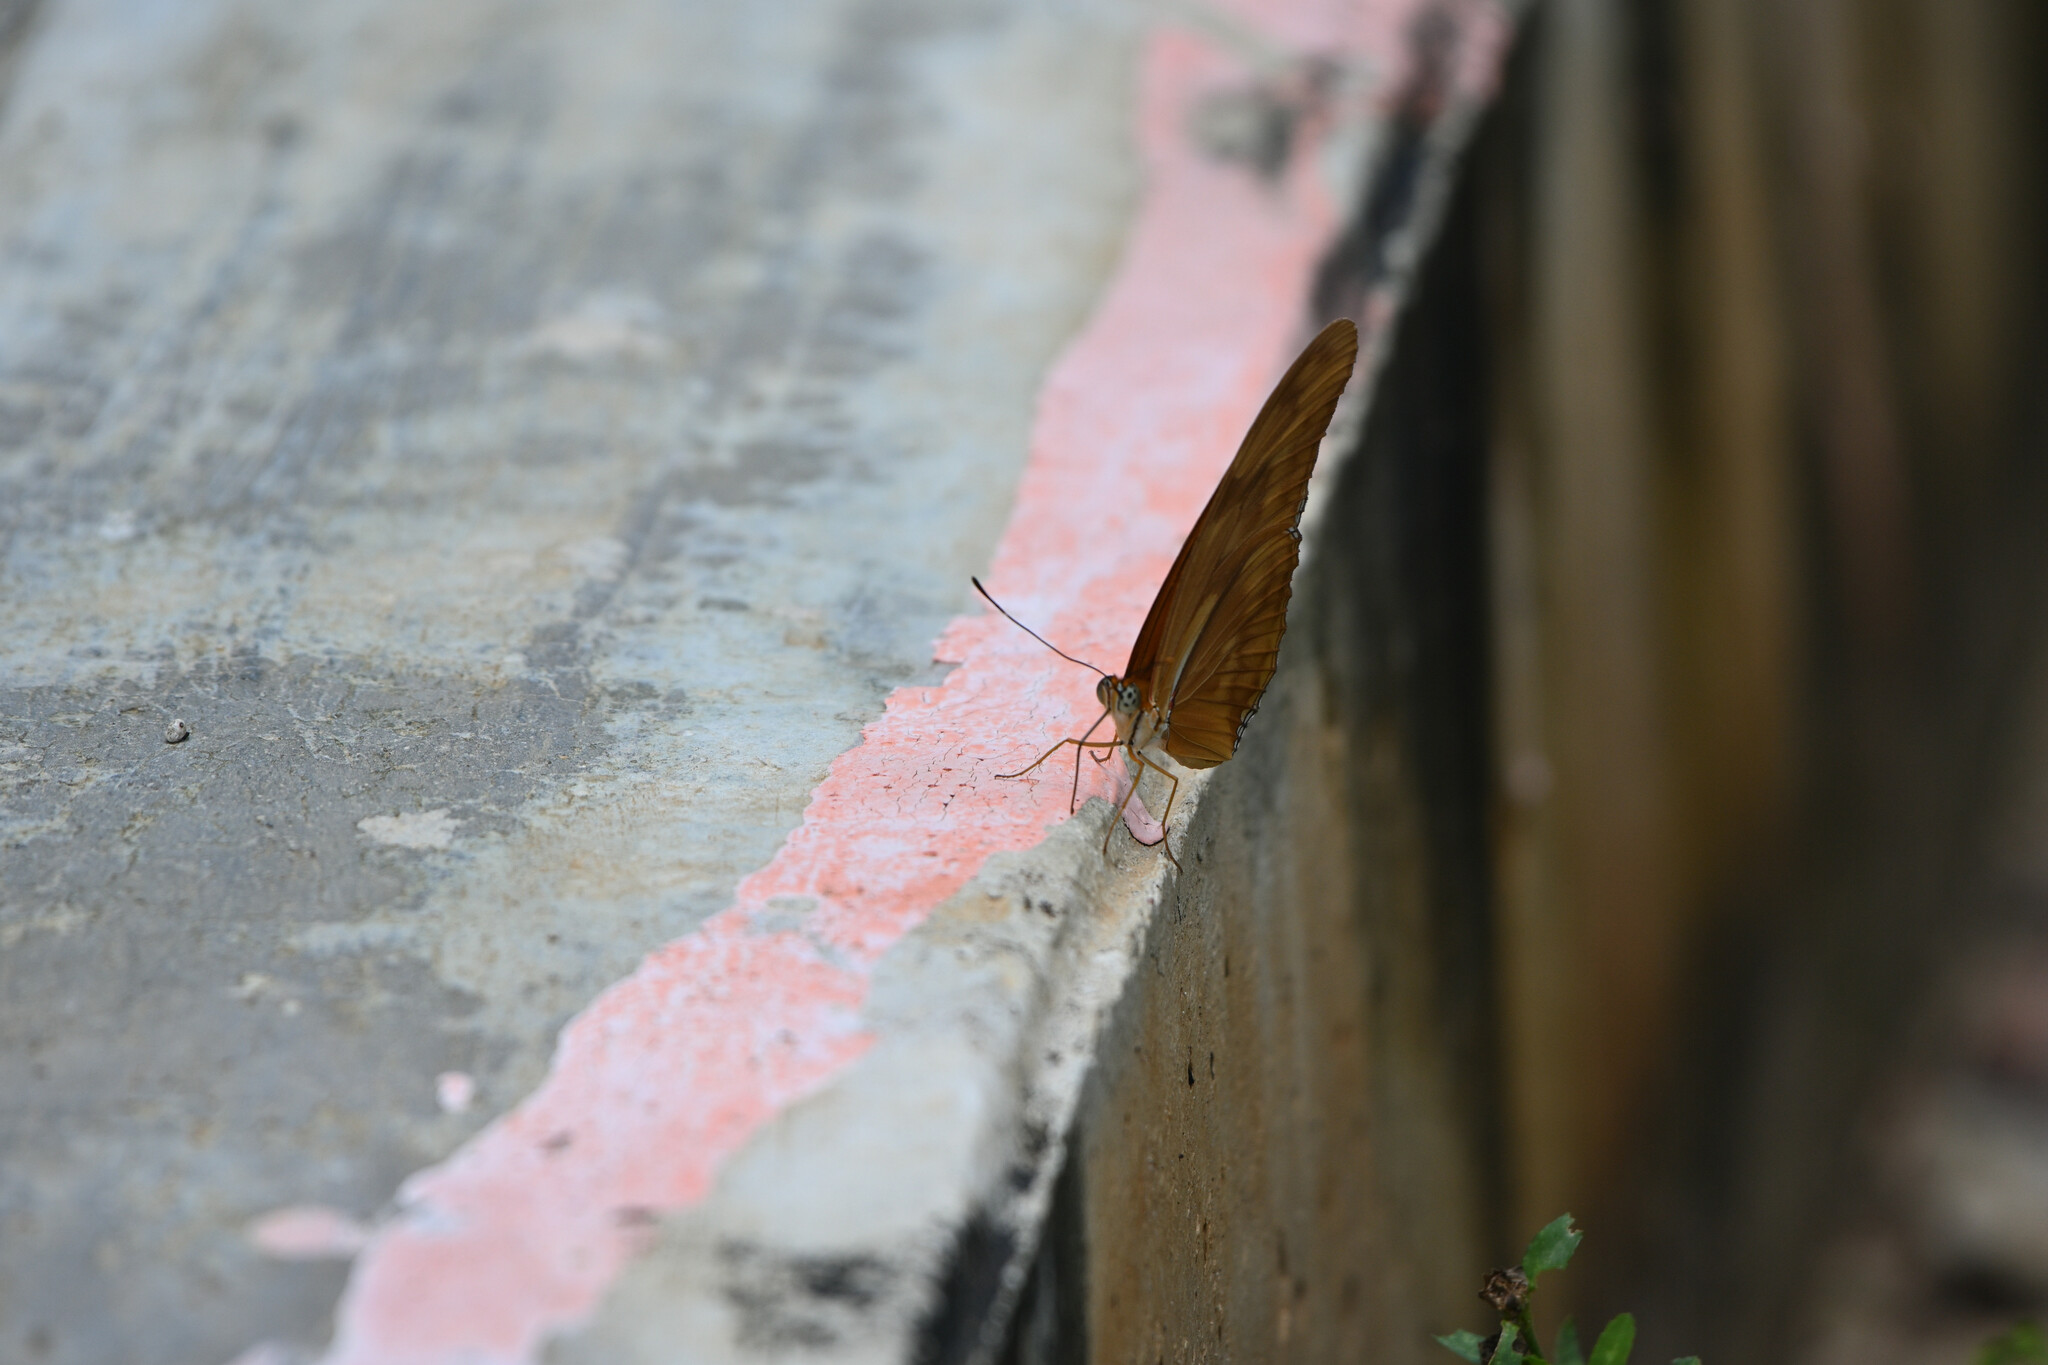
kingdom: Animalia
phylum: Arthropoda
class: Insecta
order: Lepidoptera
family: Nymphalidae
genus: Dryas
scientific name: Dryas iulia
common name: Flambeau
